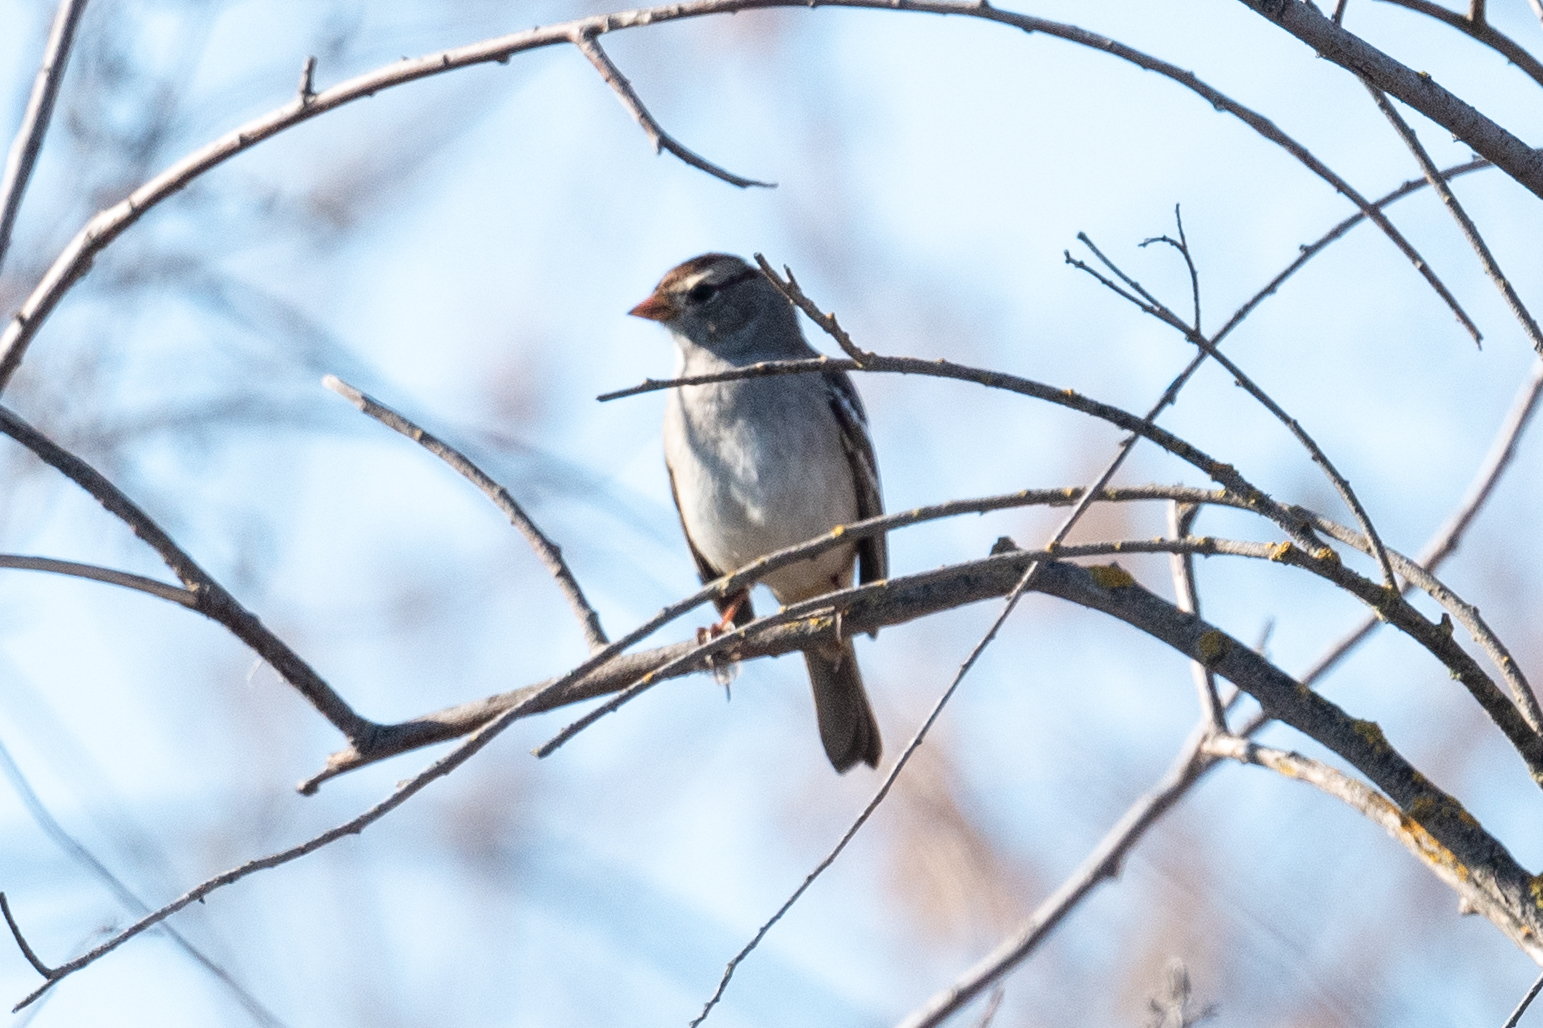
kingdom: Animalia
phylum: Chordata
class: Aves
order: Passeriformes
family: Passerellidae
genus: Zonotrichia
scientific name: Zonotrichia leucophrys
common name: White-crowned sparrow
